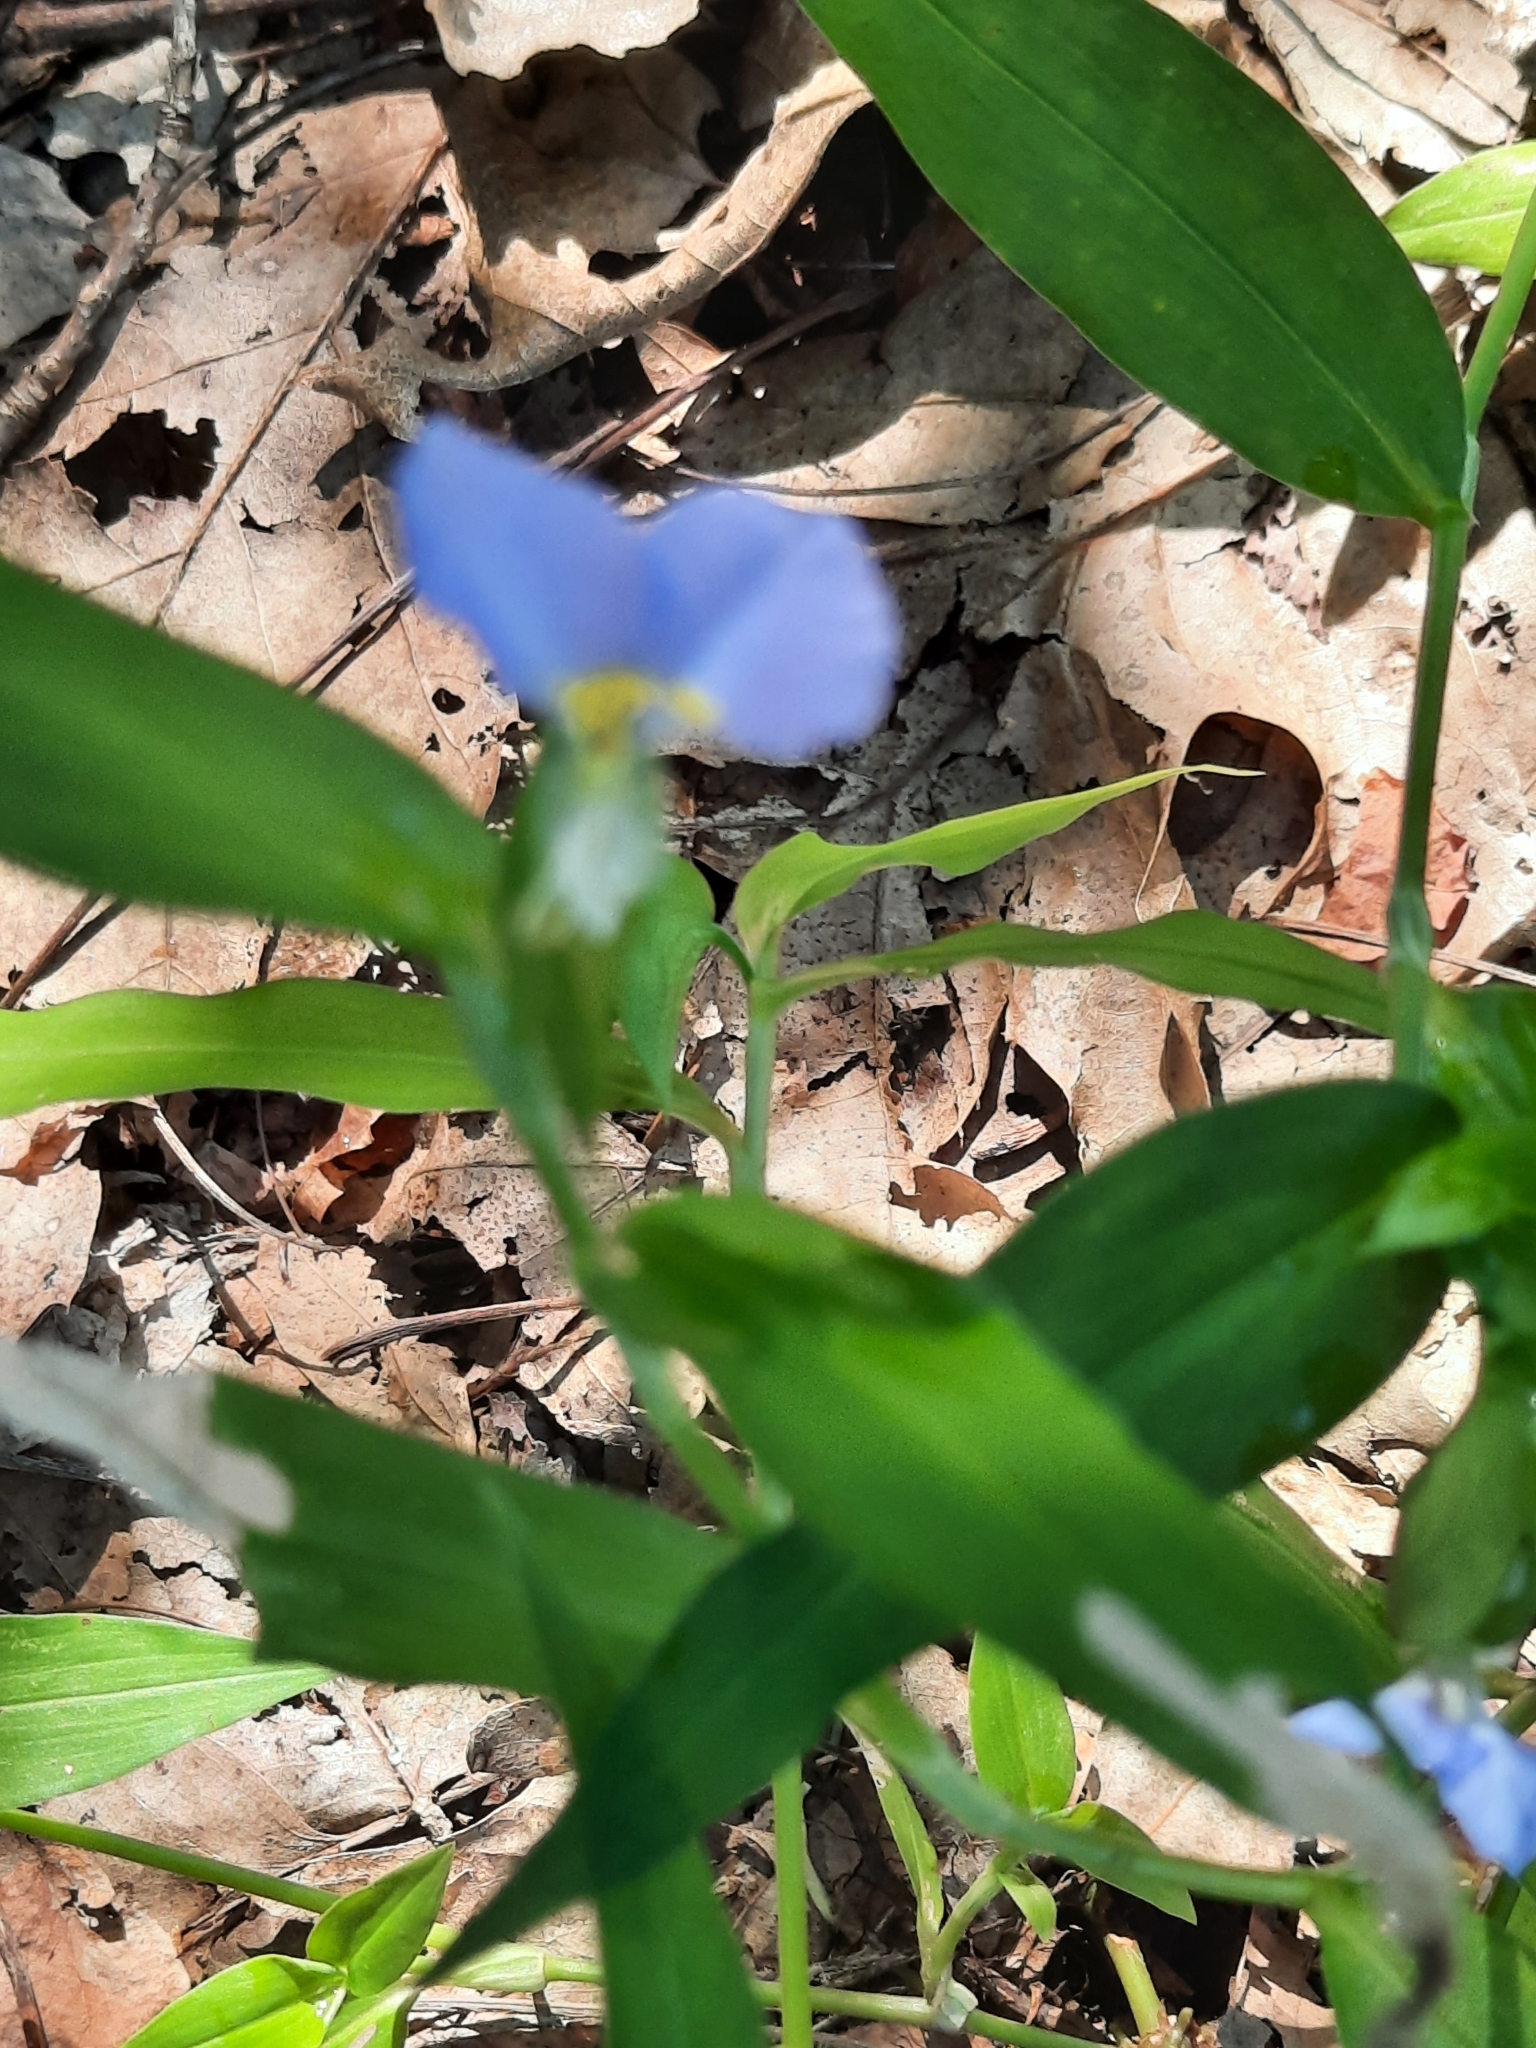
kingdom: Plantae
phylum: Tracheophyta
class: Liliopsida
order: Commelinales
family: Commelinaceae
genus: Commelina
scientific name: Commelina communis
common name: Asiatic dayflower
